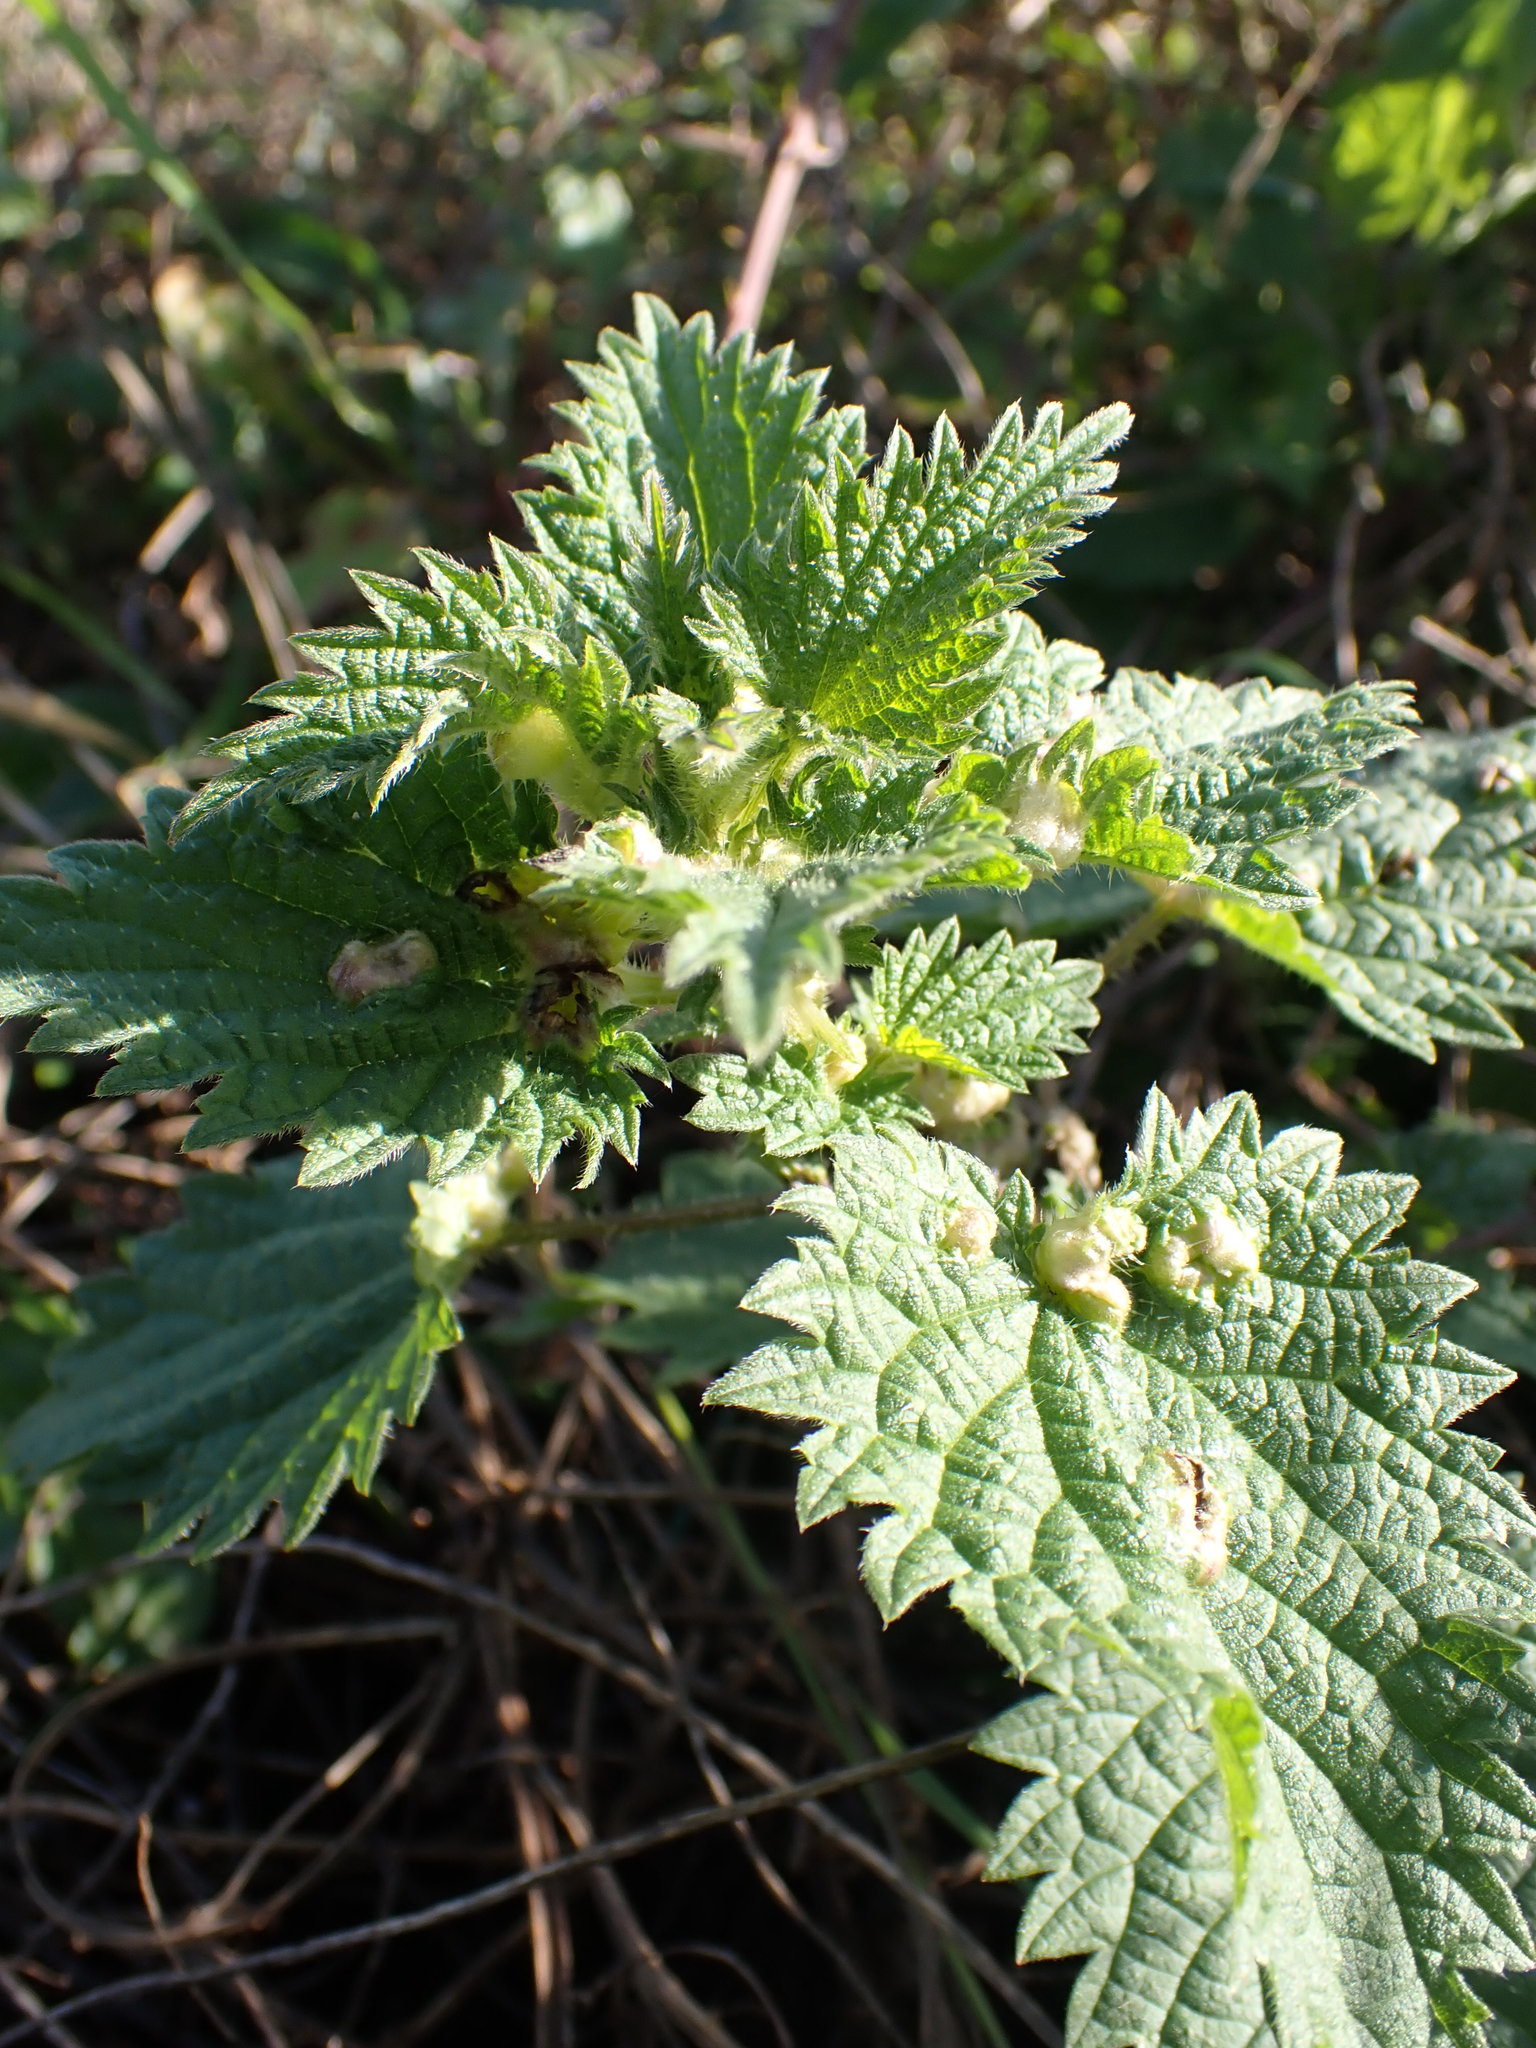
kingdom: Plantae
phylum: Tracheophyta
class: Magnoliopsida
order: Rosales
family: Urticaceae
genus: Urtica
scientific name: Urtica dioica
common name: Common nettle
